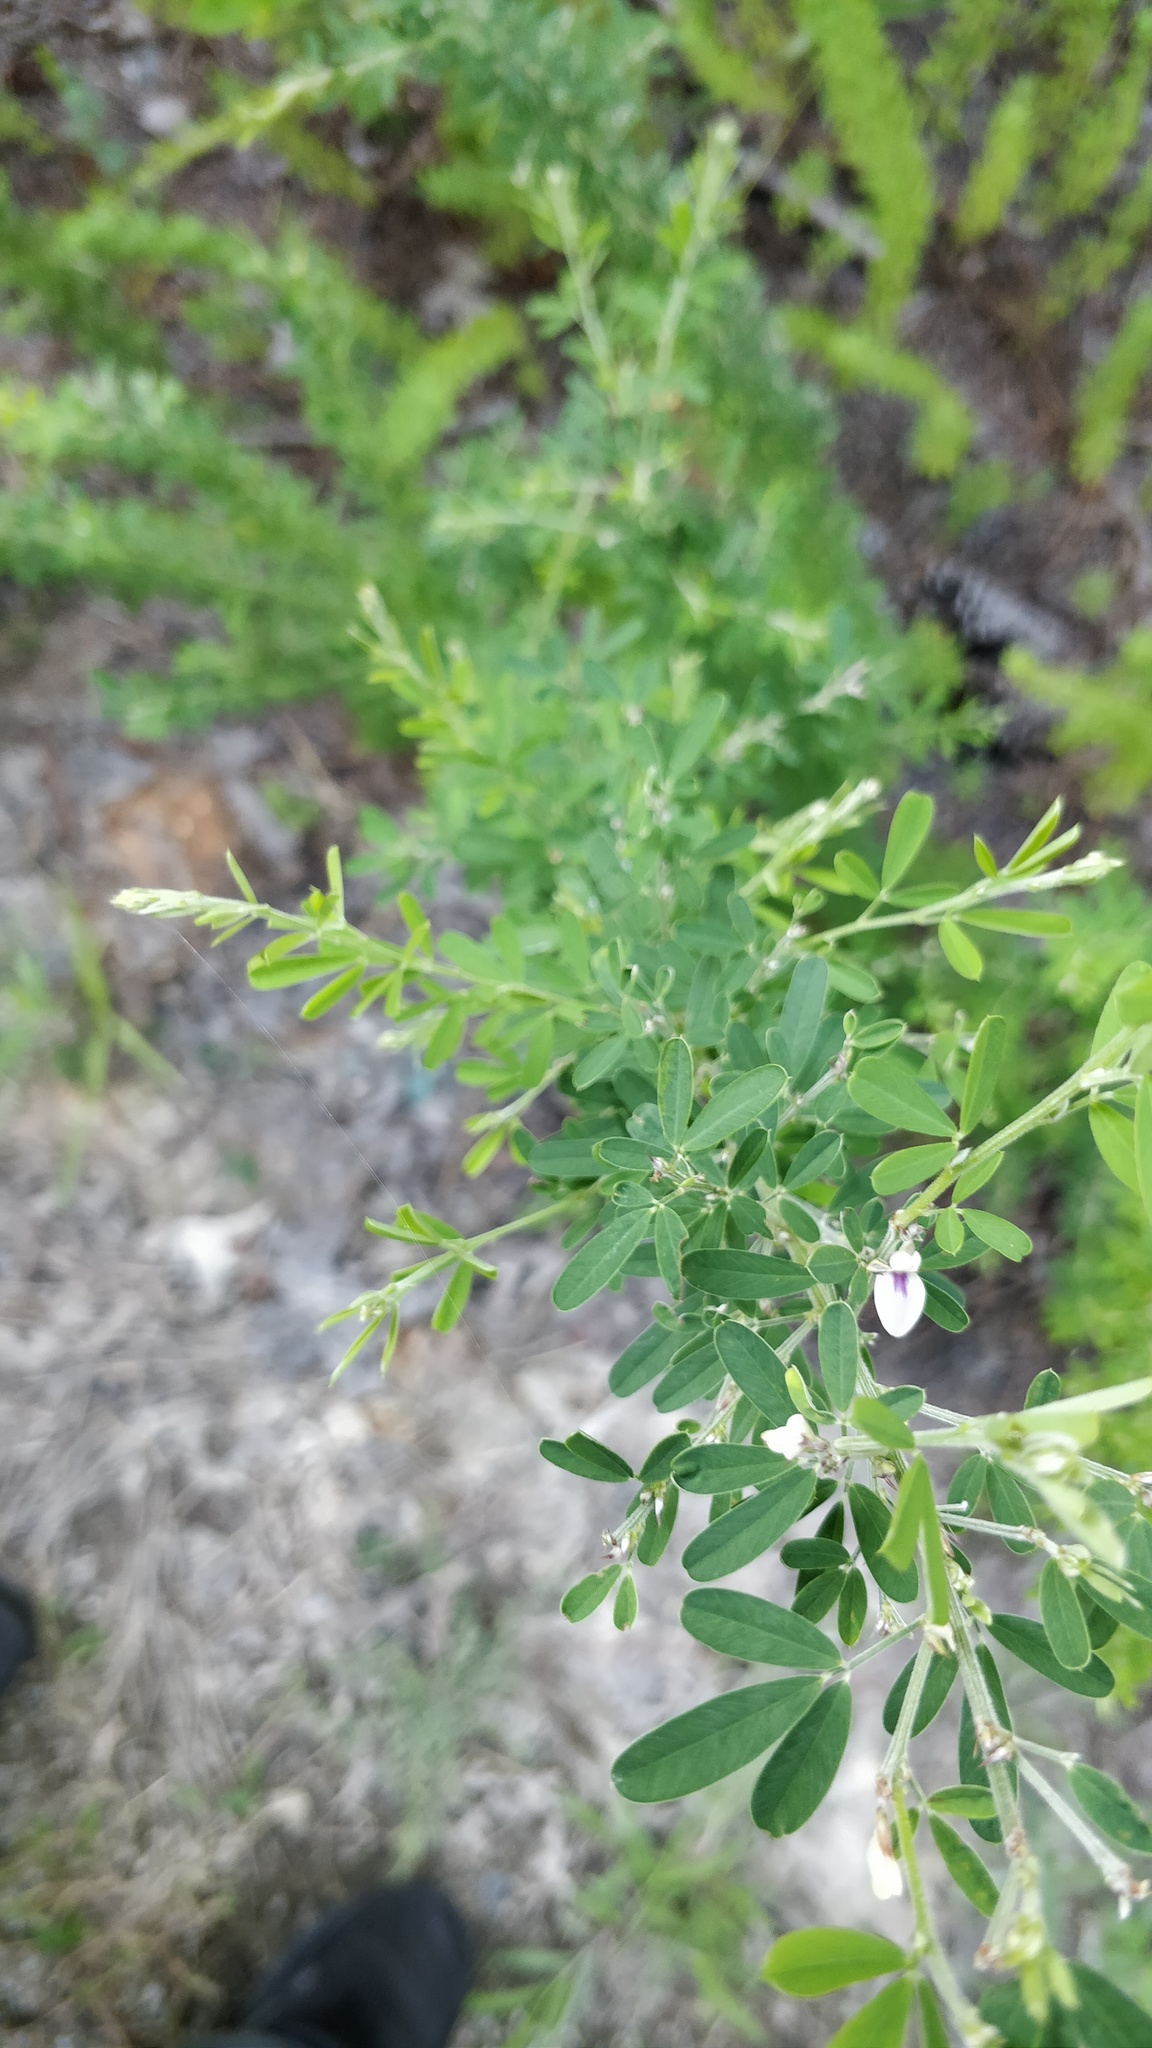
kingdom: Plantae
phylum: Tracheophyta
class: Magnoliopsida
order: Fabales
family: Fabaceae
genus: Lespedeza
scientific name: Lespedeza cuneata
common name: Chinese bush-clover
